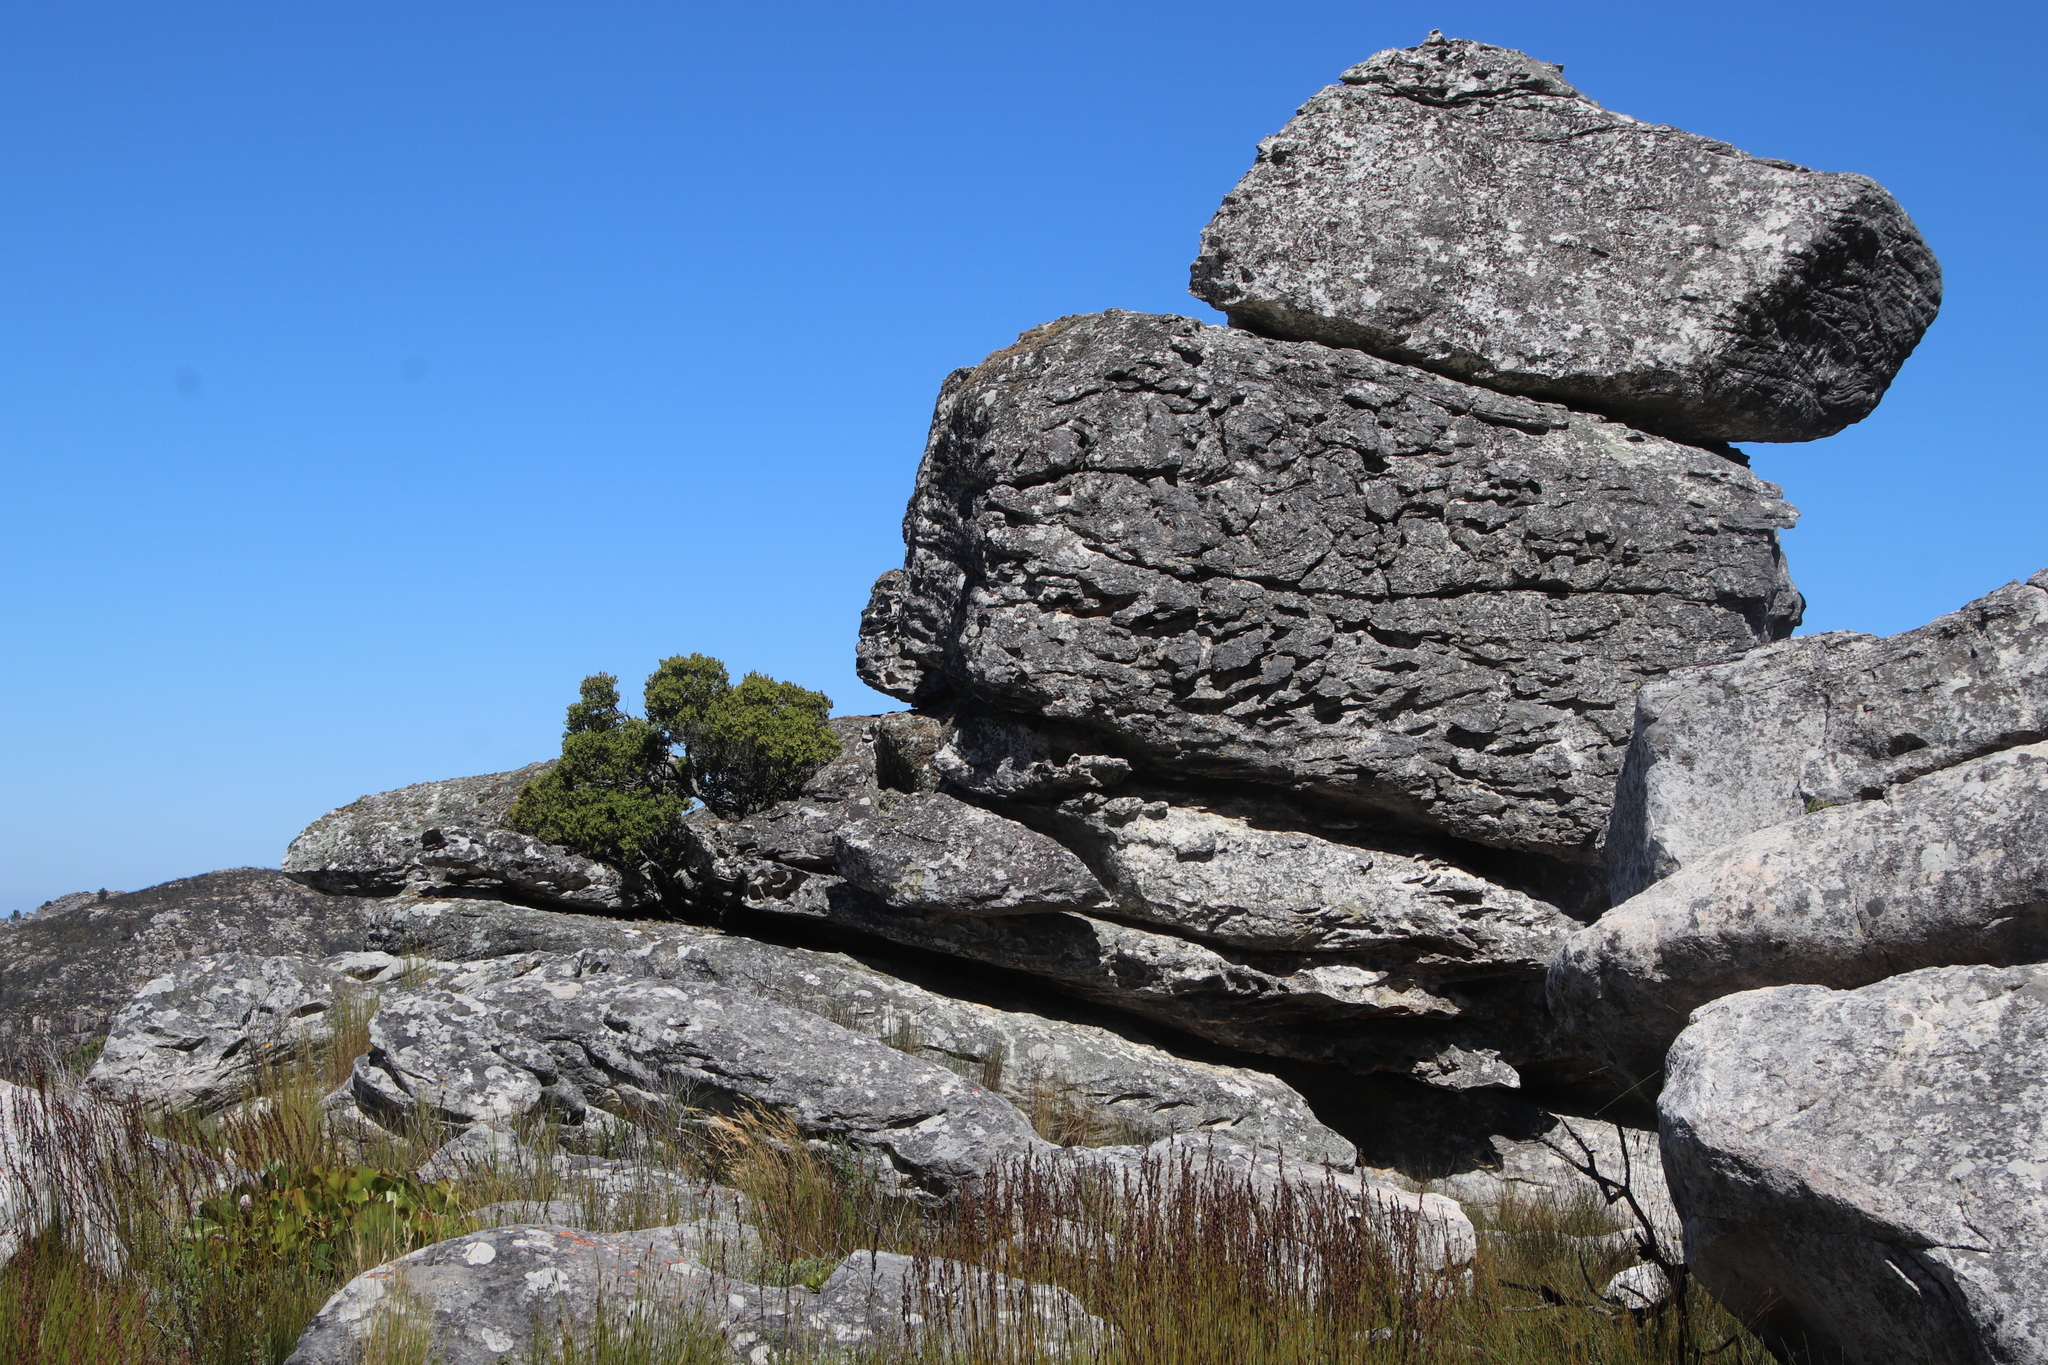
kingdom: Plantae
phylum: Tracheophyta
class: Magnoliopsida
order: Ericales
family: Ebenaceae
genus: Diospyros
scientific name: Diospyros glabra
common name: Fynbos star apple
